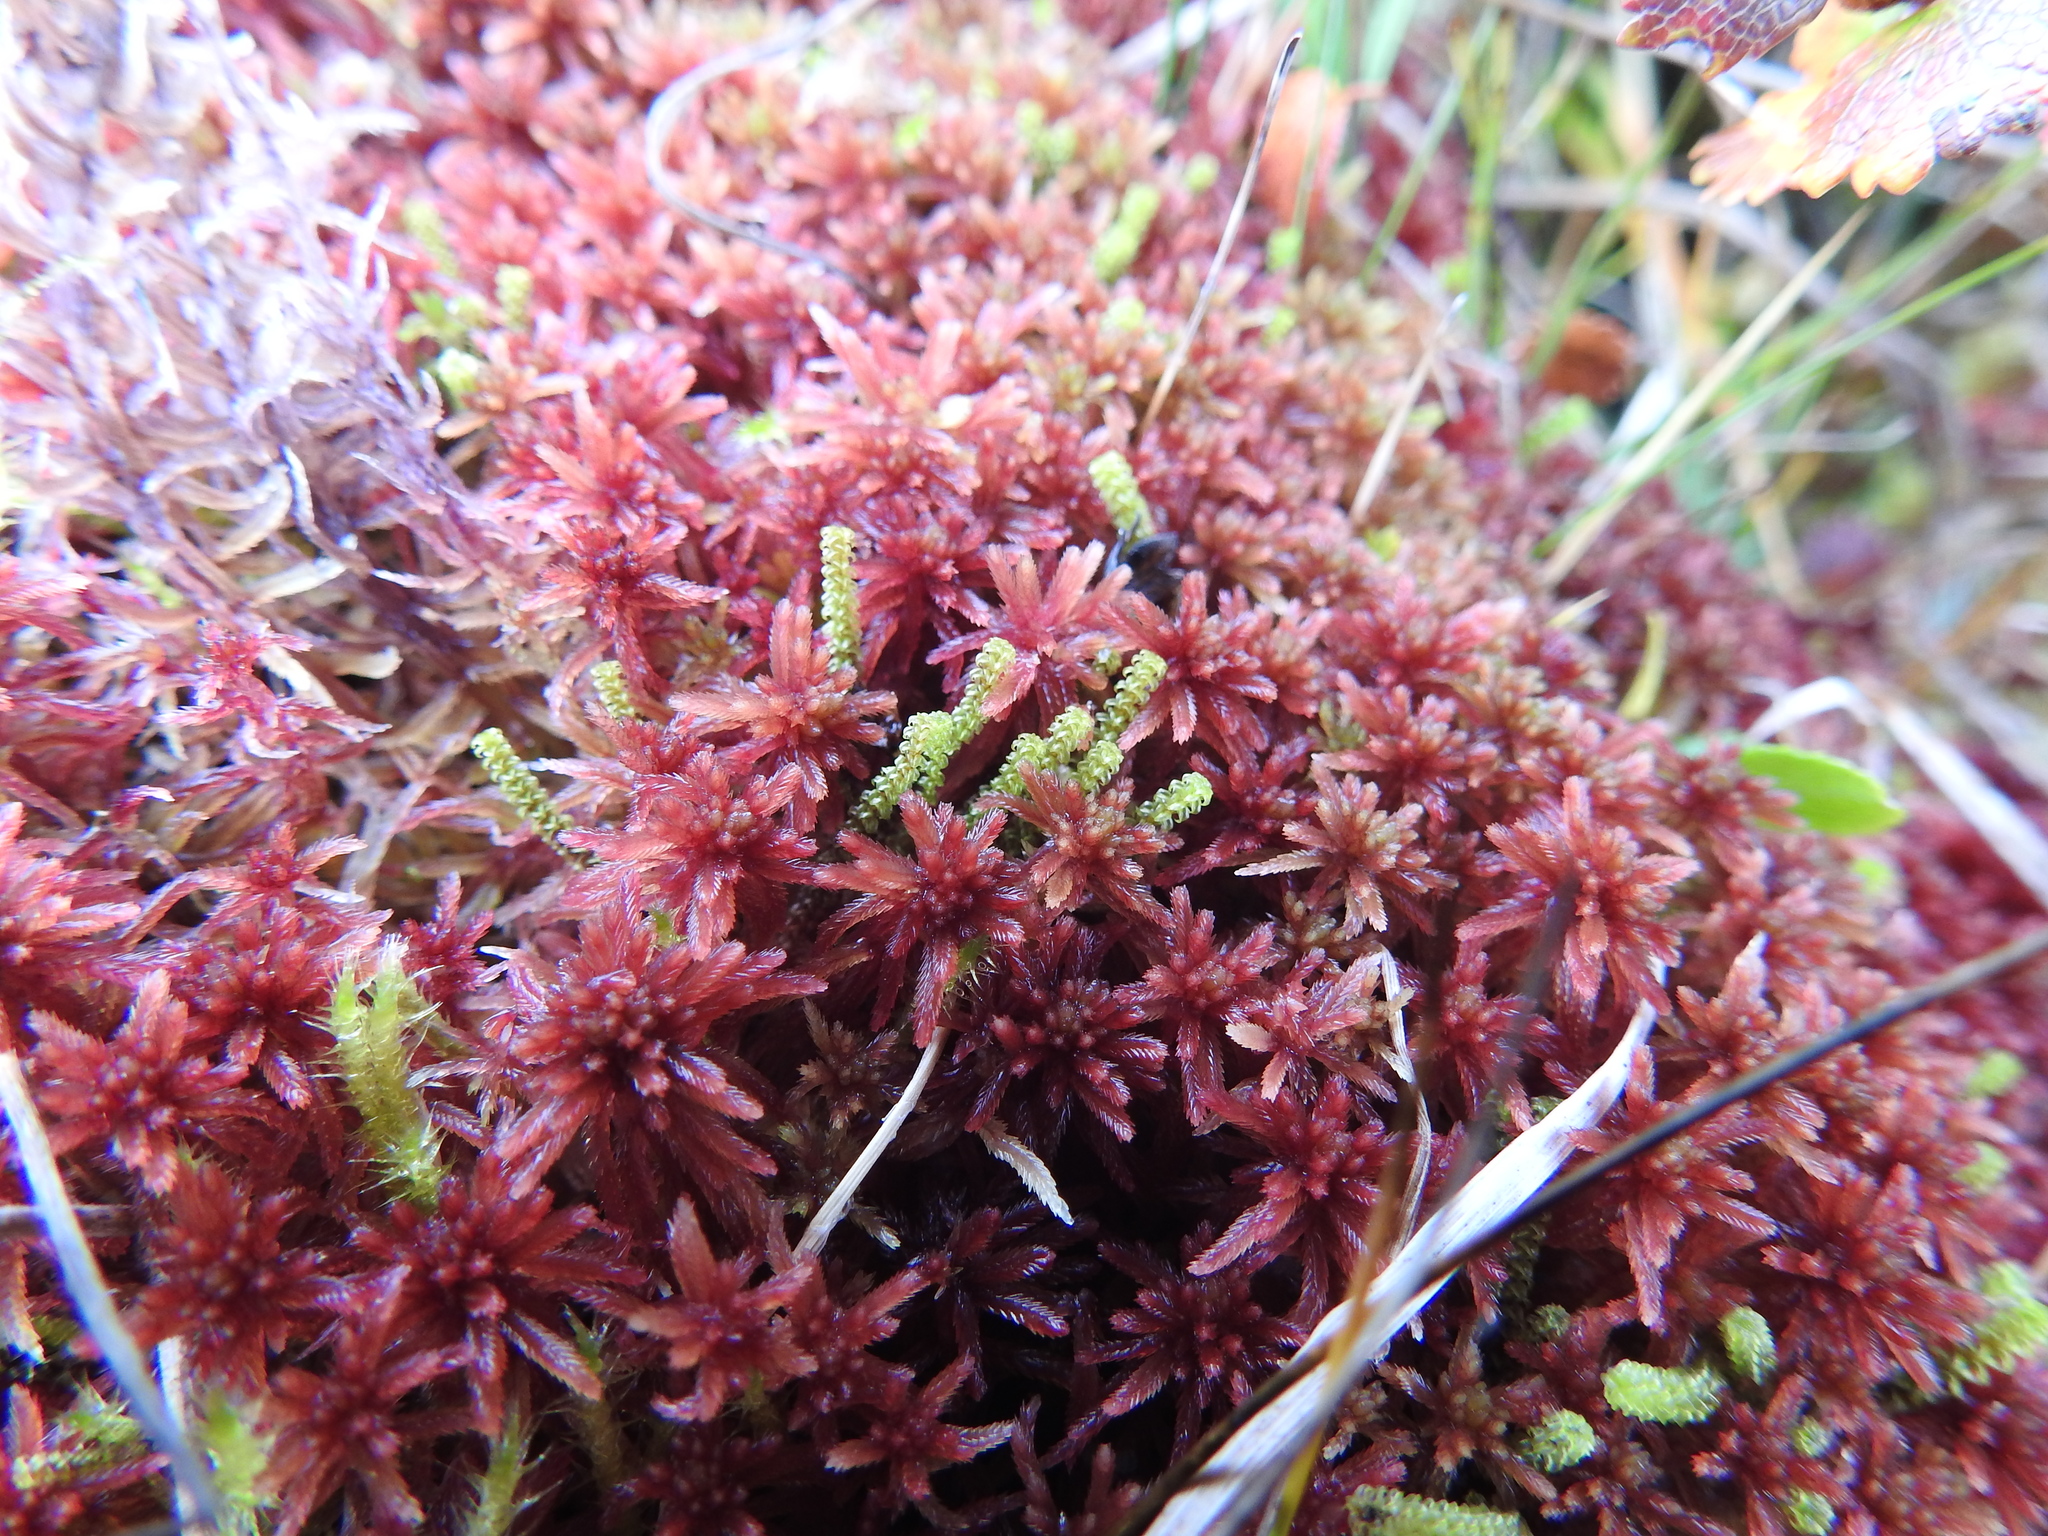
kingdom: Plantae
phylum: Bryophyta
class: Sphagnopsida
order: Sphagnales
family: Sphagnaceae
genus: Sphagnum
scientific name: Sphagnum warnstorfii
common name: Warnstorf's peat moss
